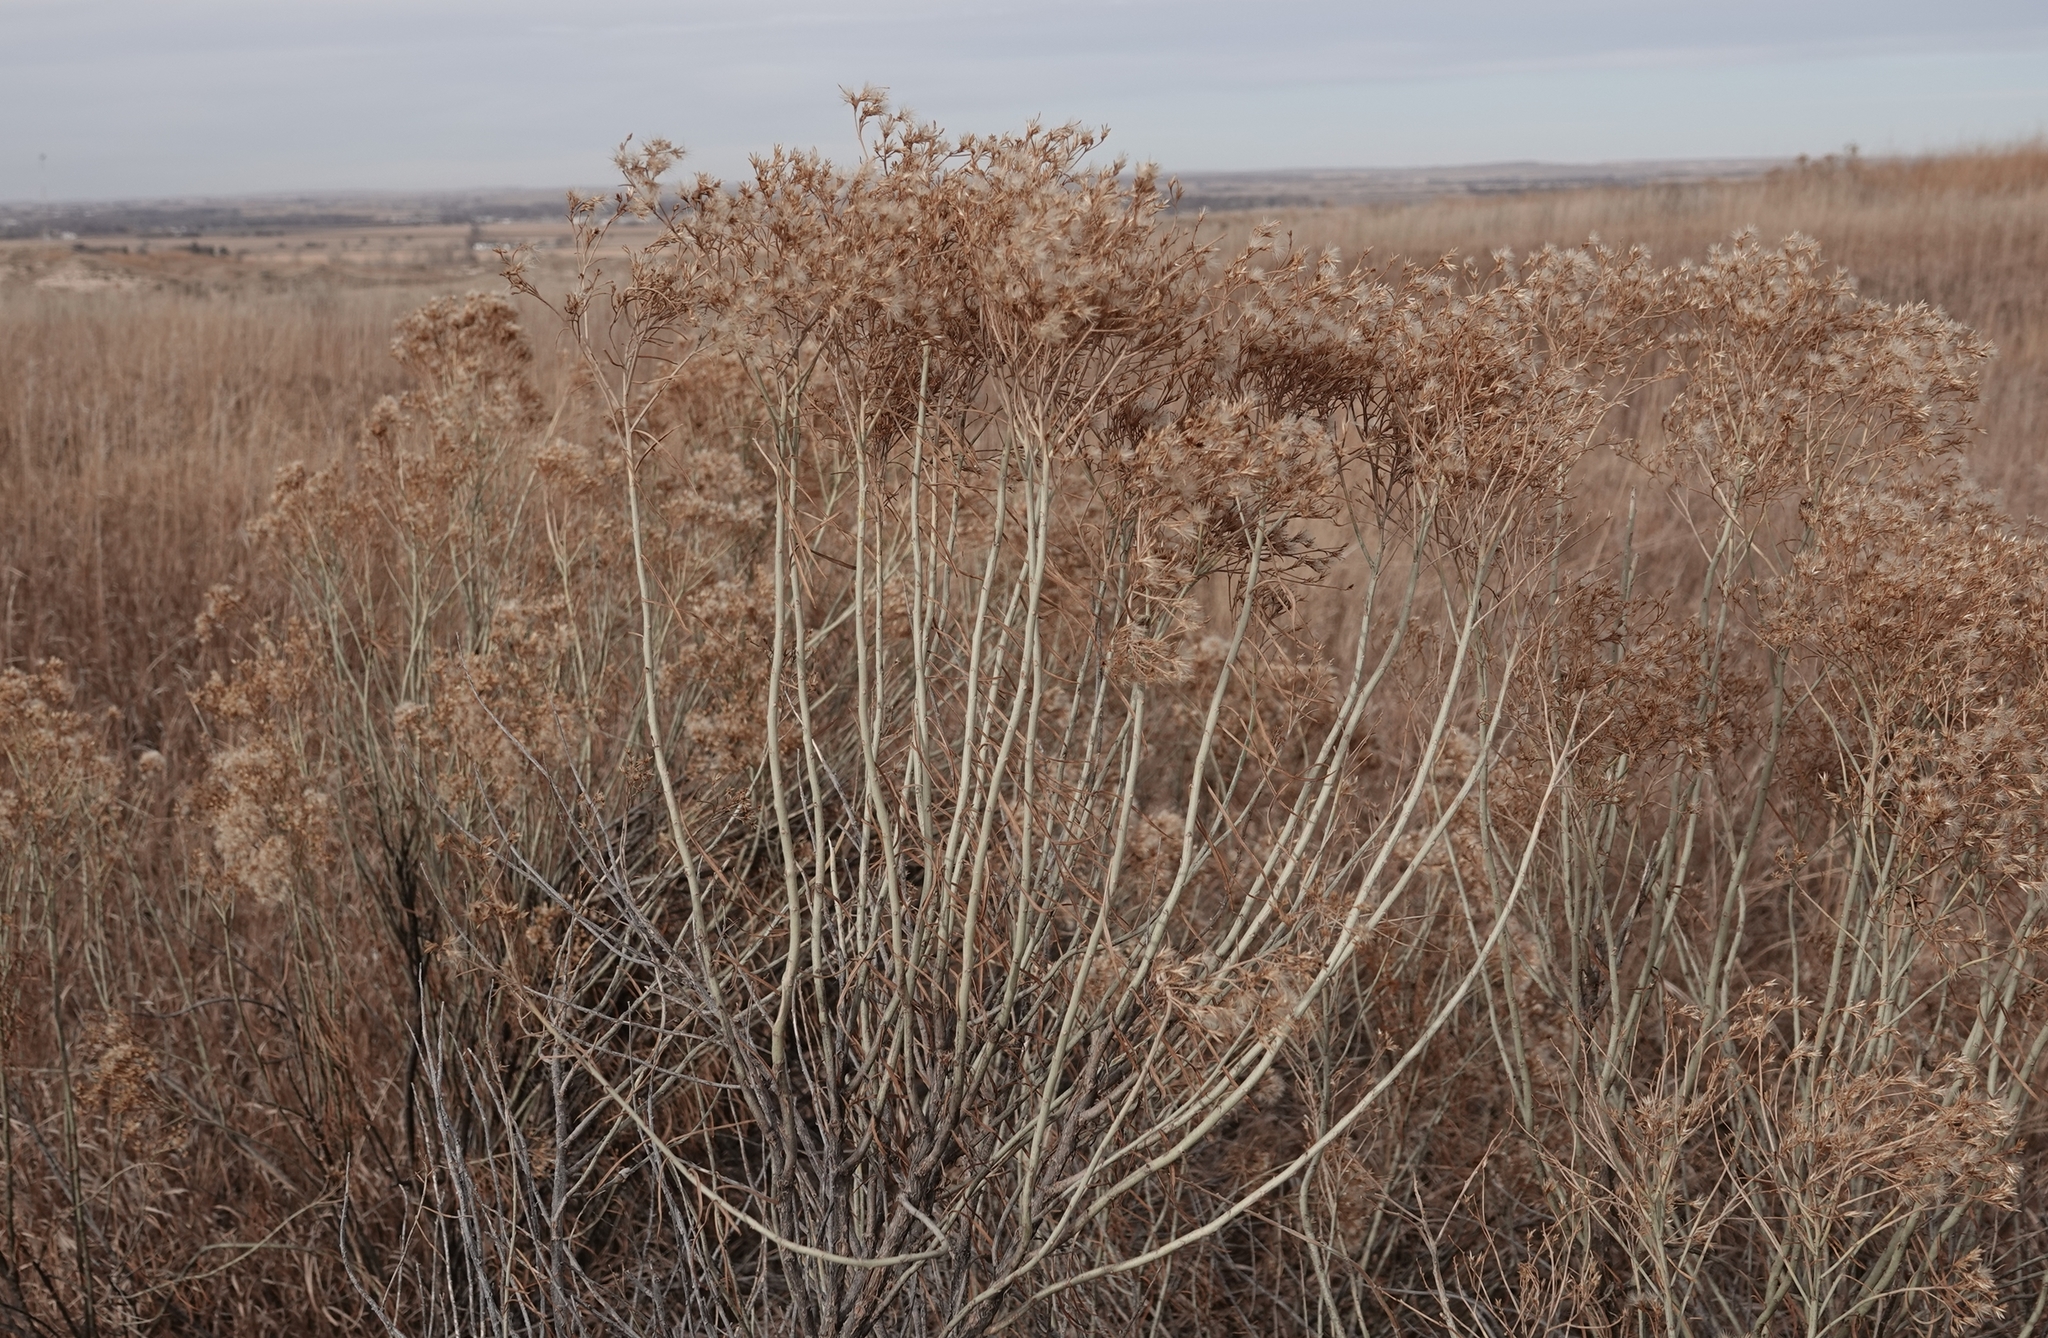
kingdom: Plantae
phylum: Tracheophyta
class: Magnoliopsida
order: Asterales
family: Asteraceae
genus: Ericameria
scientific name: Ericameria nauseosa
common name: Rubber rabbitbrush
